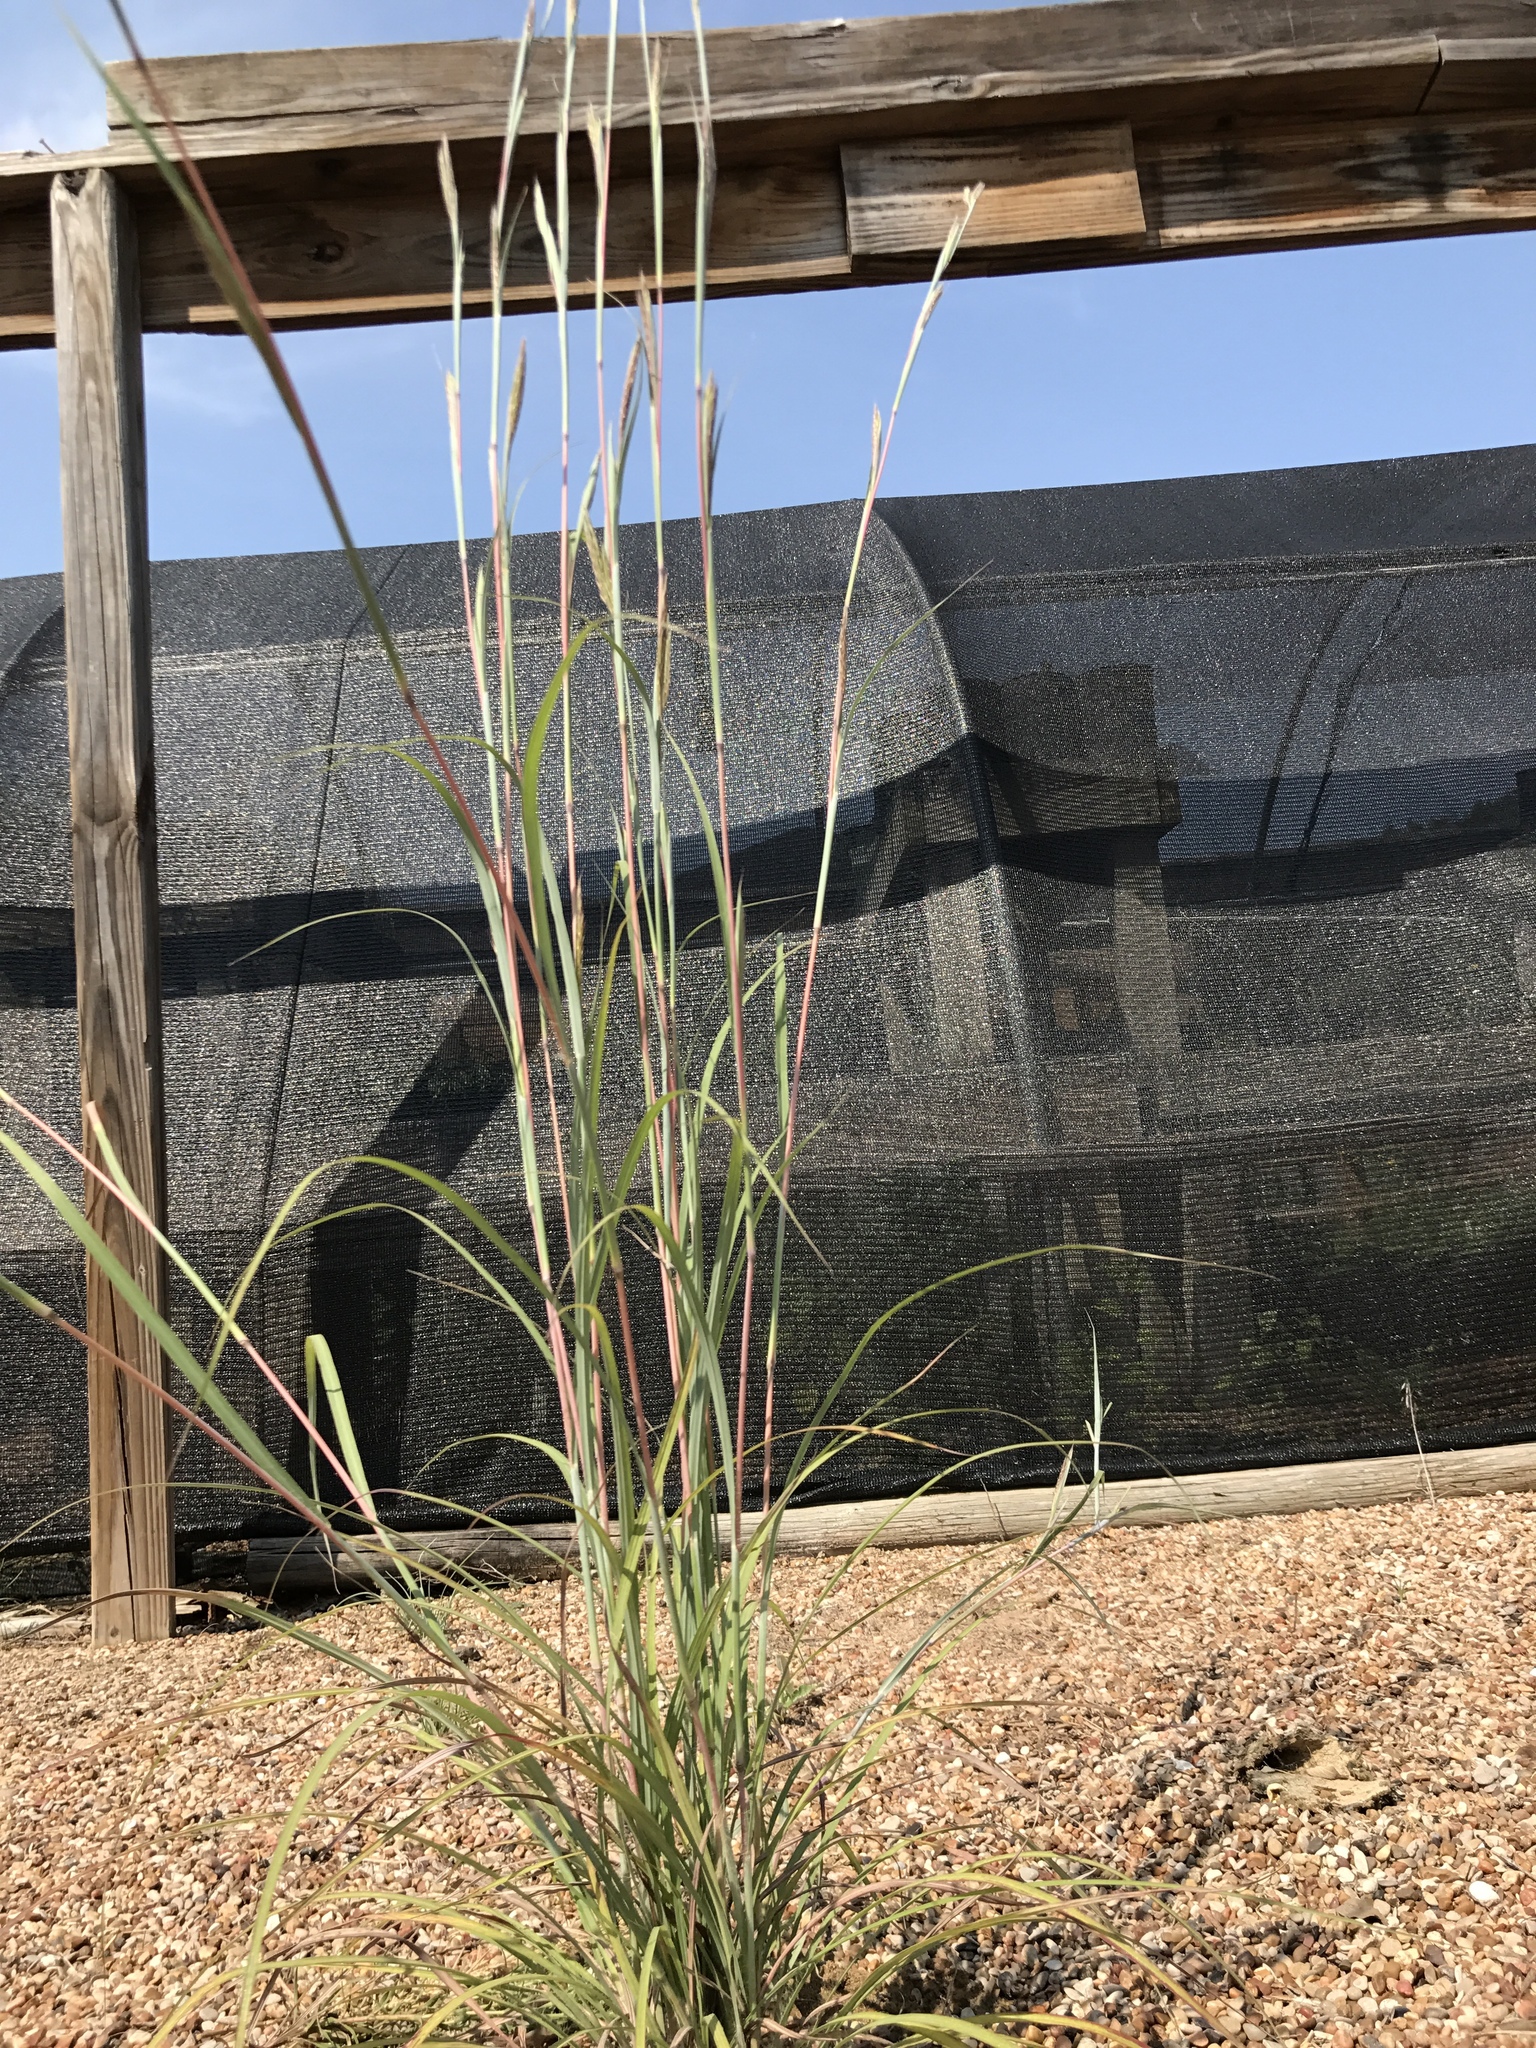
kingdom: Plantae
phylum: Tracheophyta
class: Liliopsida
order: Poales
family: Poaceae
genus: Andropogon
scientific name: Andropogon gerardi
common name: Big bluestem
